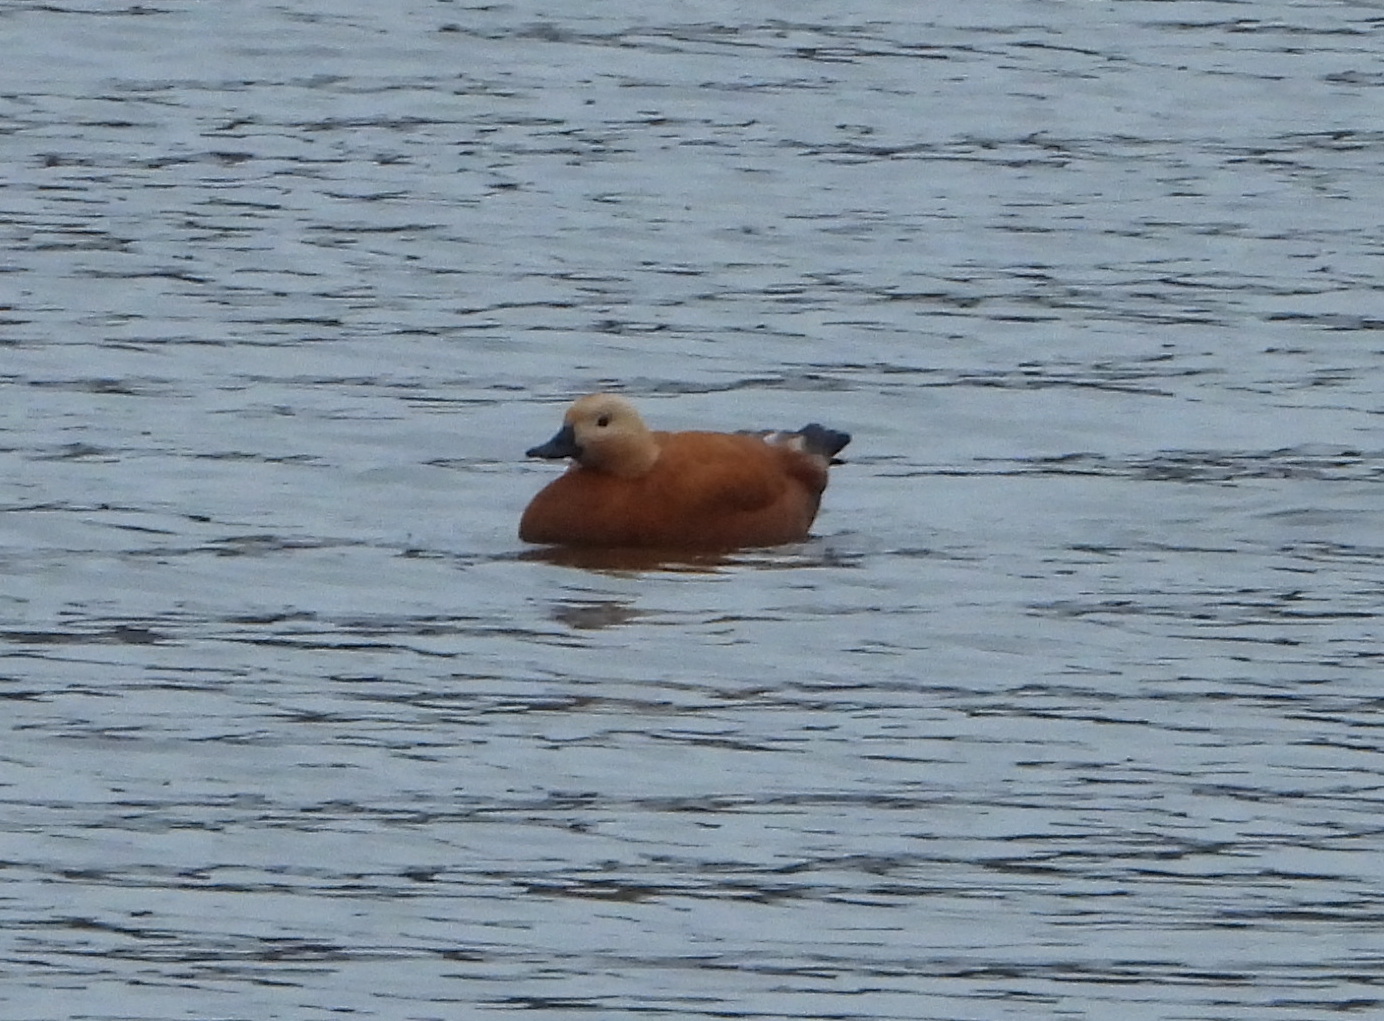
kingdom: Animalia
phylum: Chordata
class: Aves
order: Anseriformes
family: Anatidae
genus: Tadorna
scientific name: Tadorna ferruginea
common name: Ruddy shelduck
